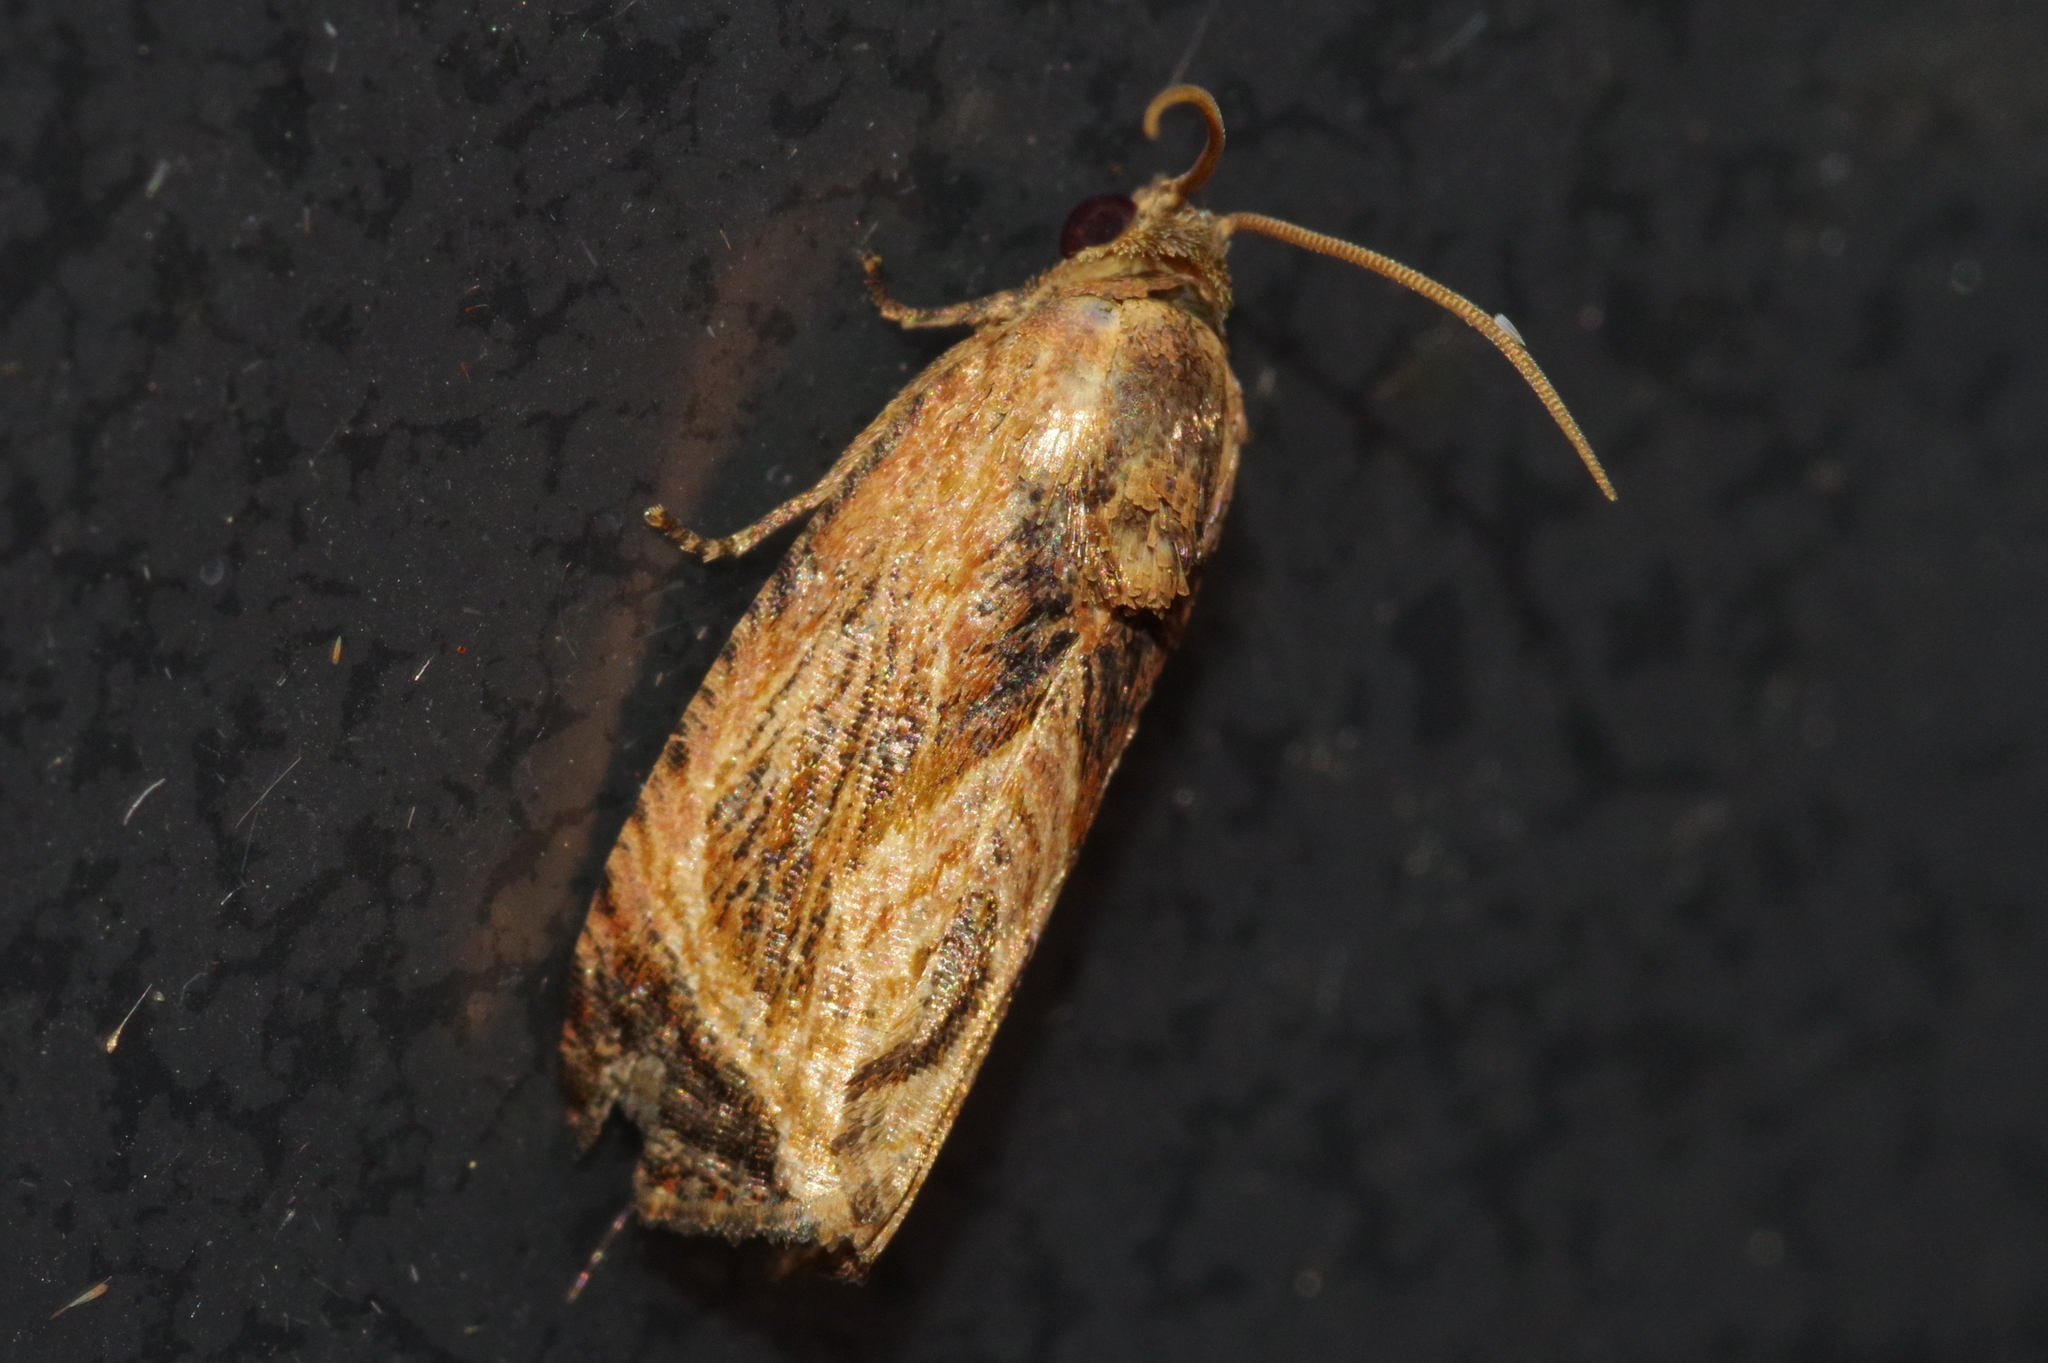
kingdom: Animalia
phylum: Arthropoda
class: Insecta
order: Lepidoptera
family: Tortricidae
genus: Cryptophlebia
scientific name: Cryptophlebia repletana
